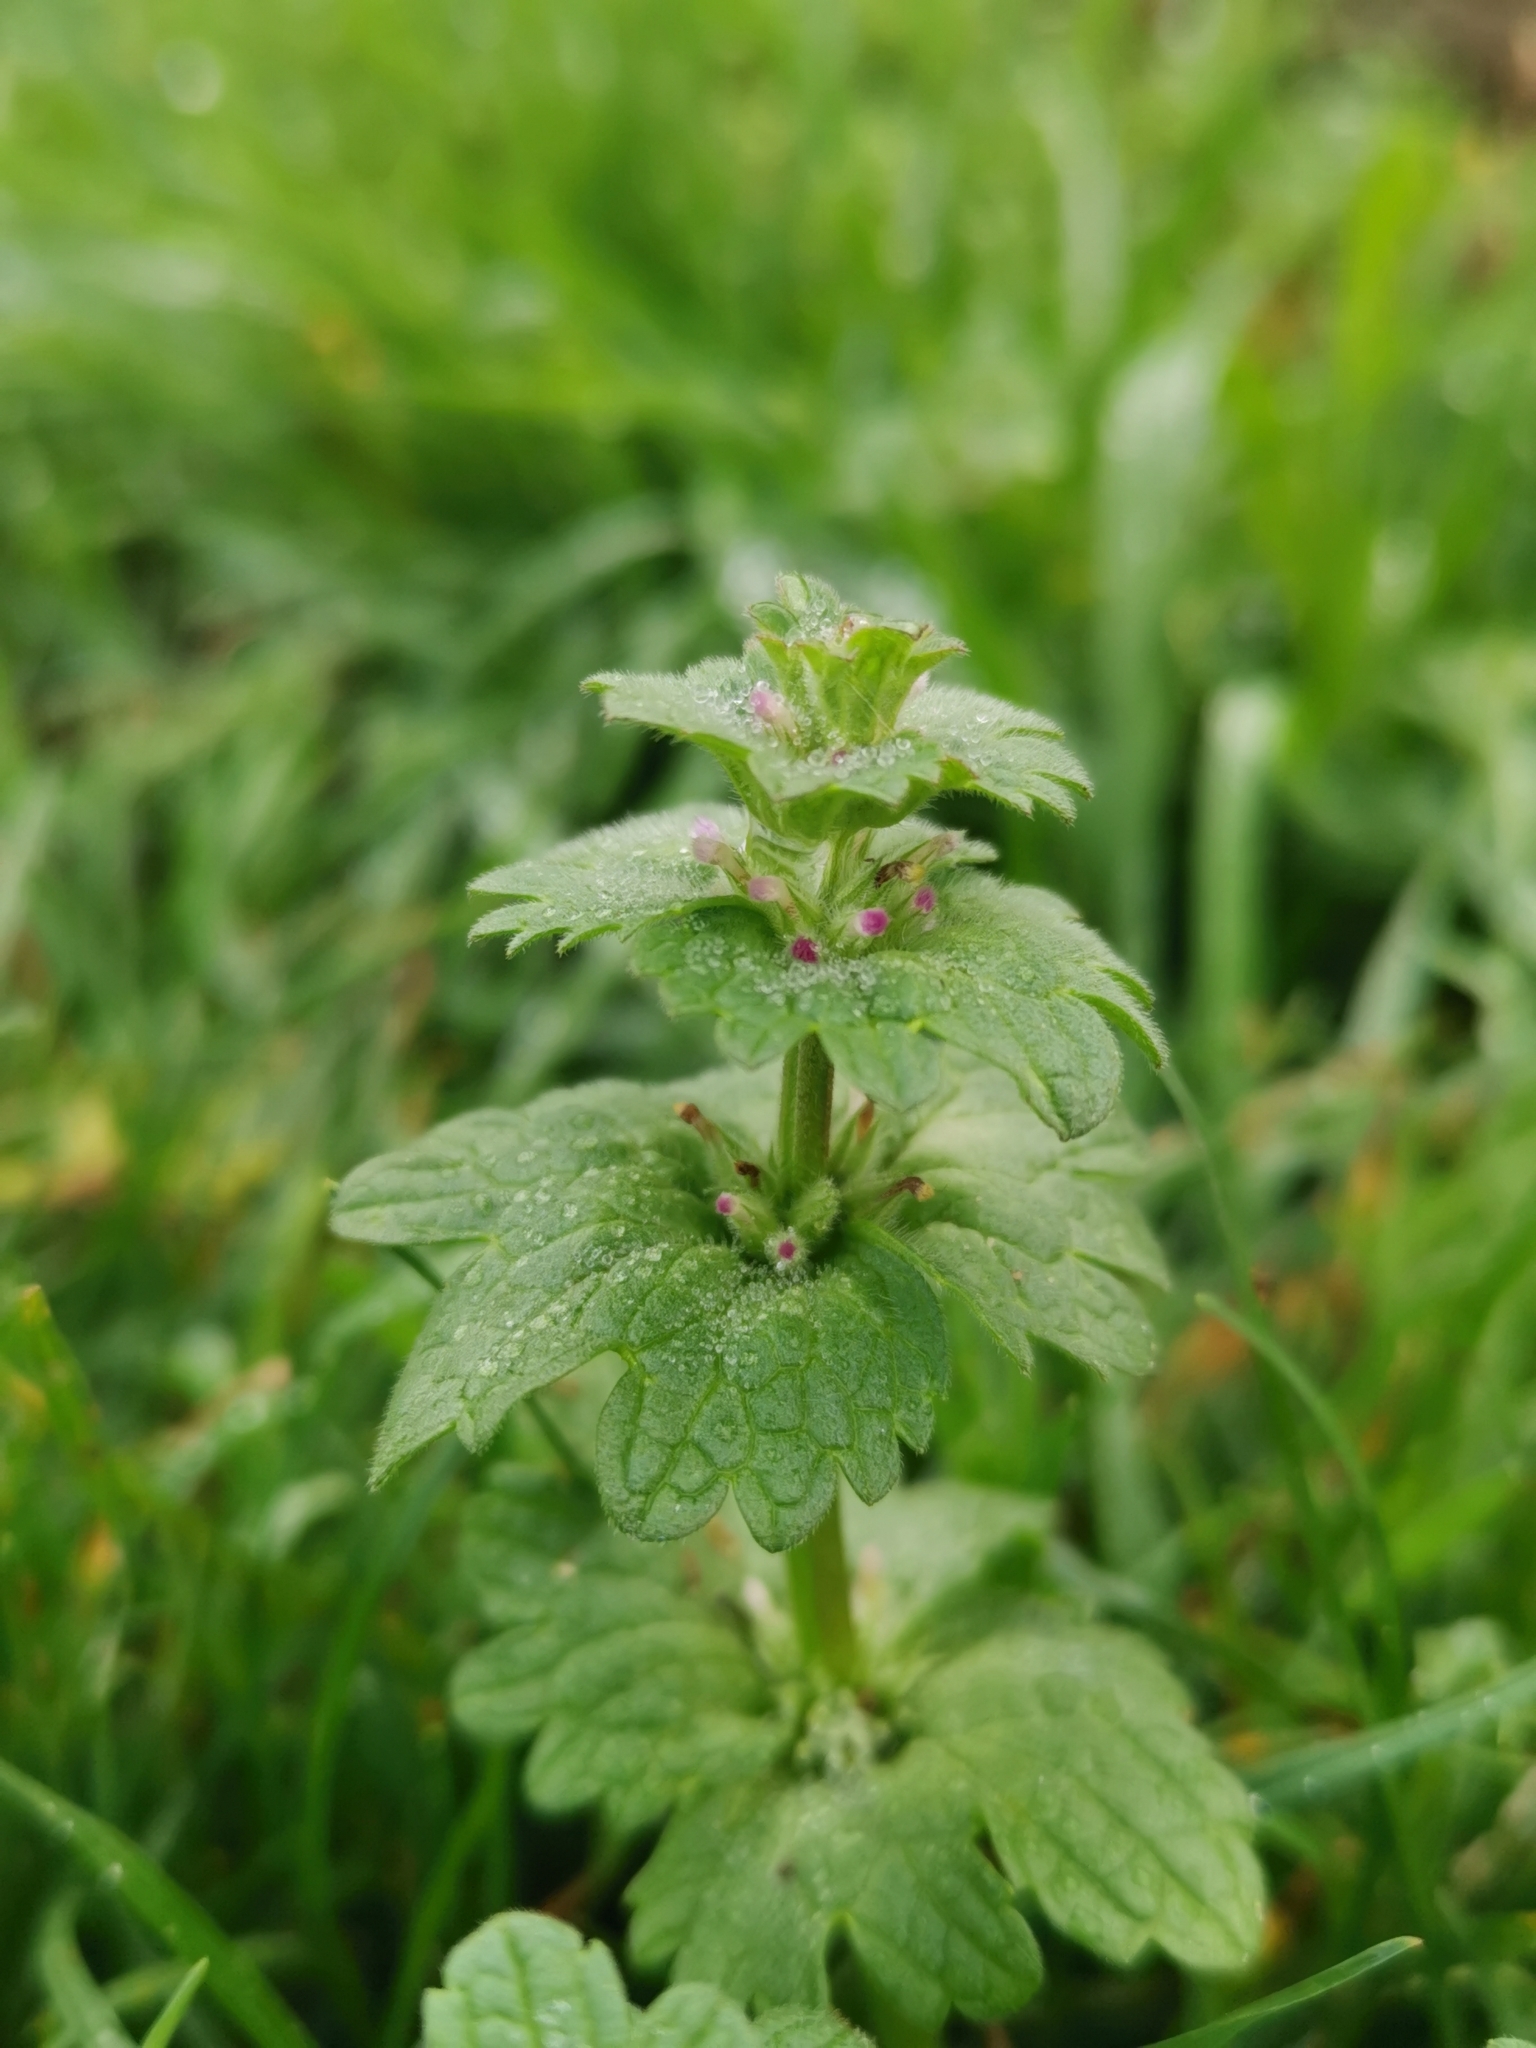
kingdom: Plantae
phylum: Tracheophyta
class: Magnoliopsida
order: Lamiales
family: Lamiaceae
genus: Lamium
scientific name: Lamium amplexicaule
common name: Henbit dead-nettle
